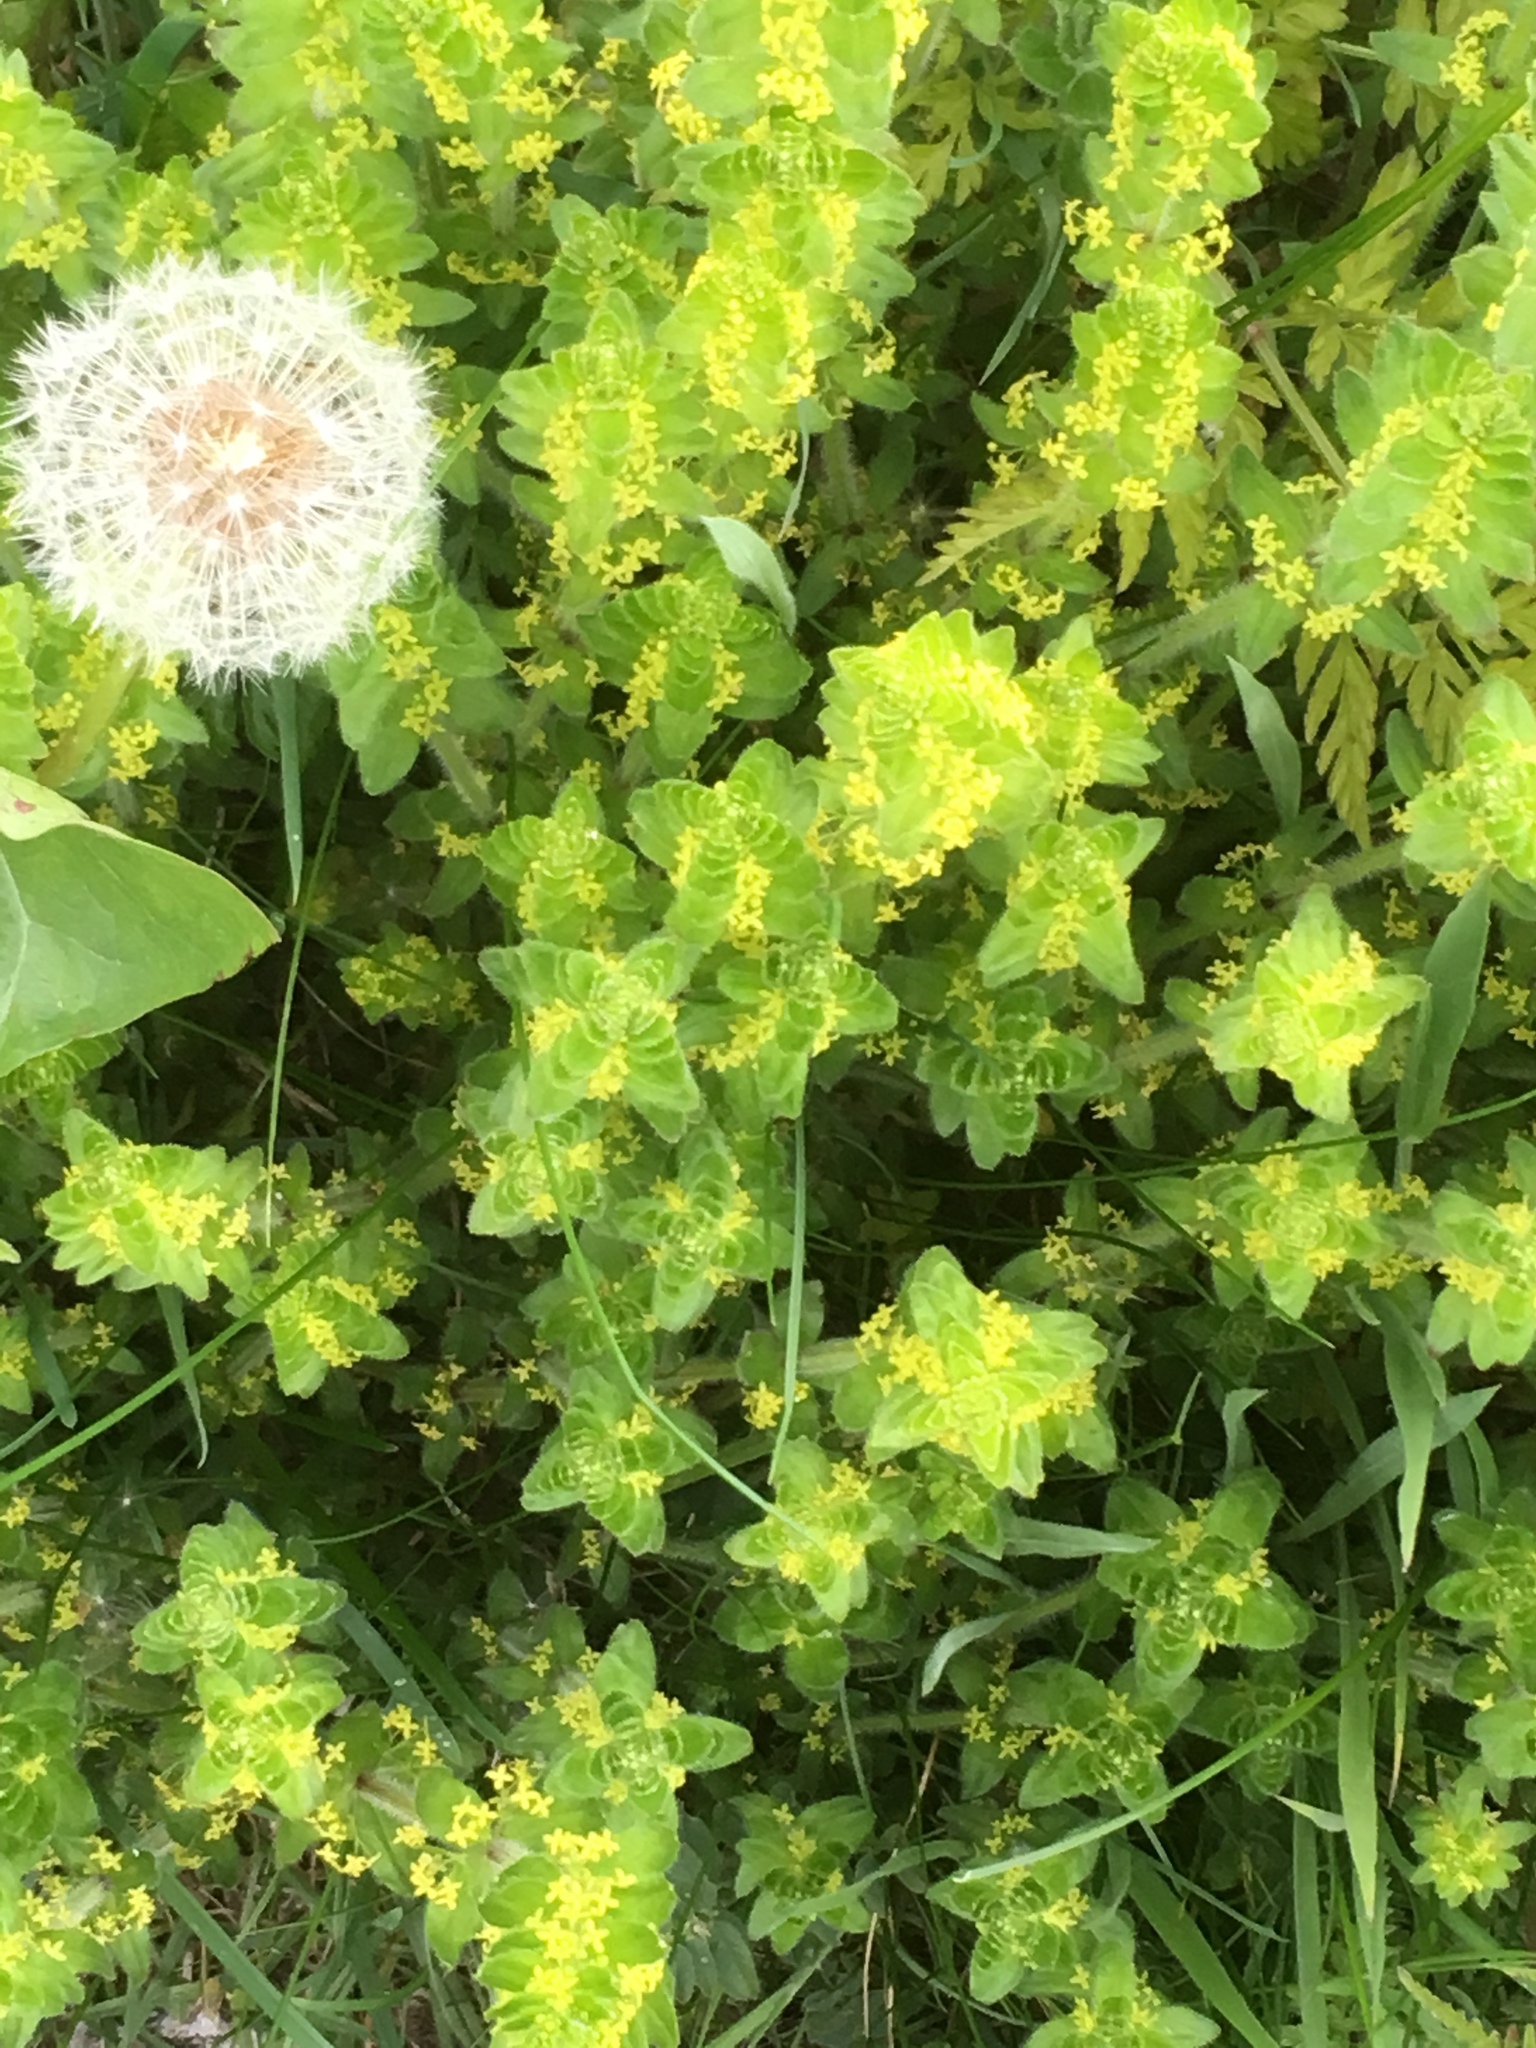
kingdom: Plantae
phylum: Tracheophyta
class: Magnoliopsida
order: Gentianales
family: Rubiaceae
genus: Cruciata
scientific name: Cruciata laevipes
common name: Crosswort
